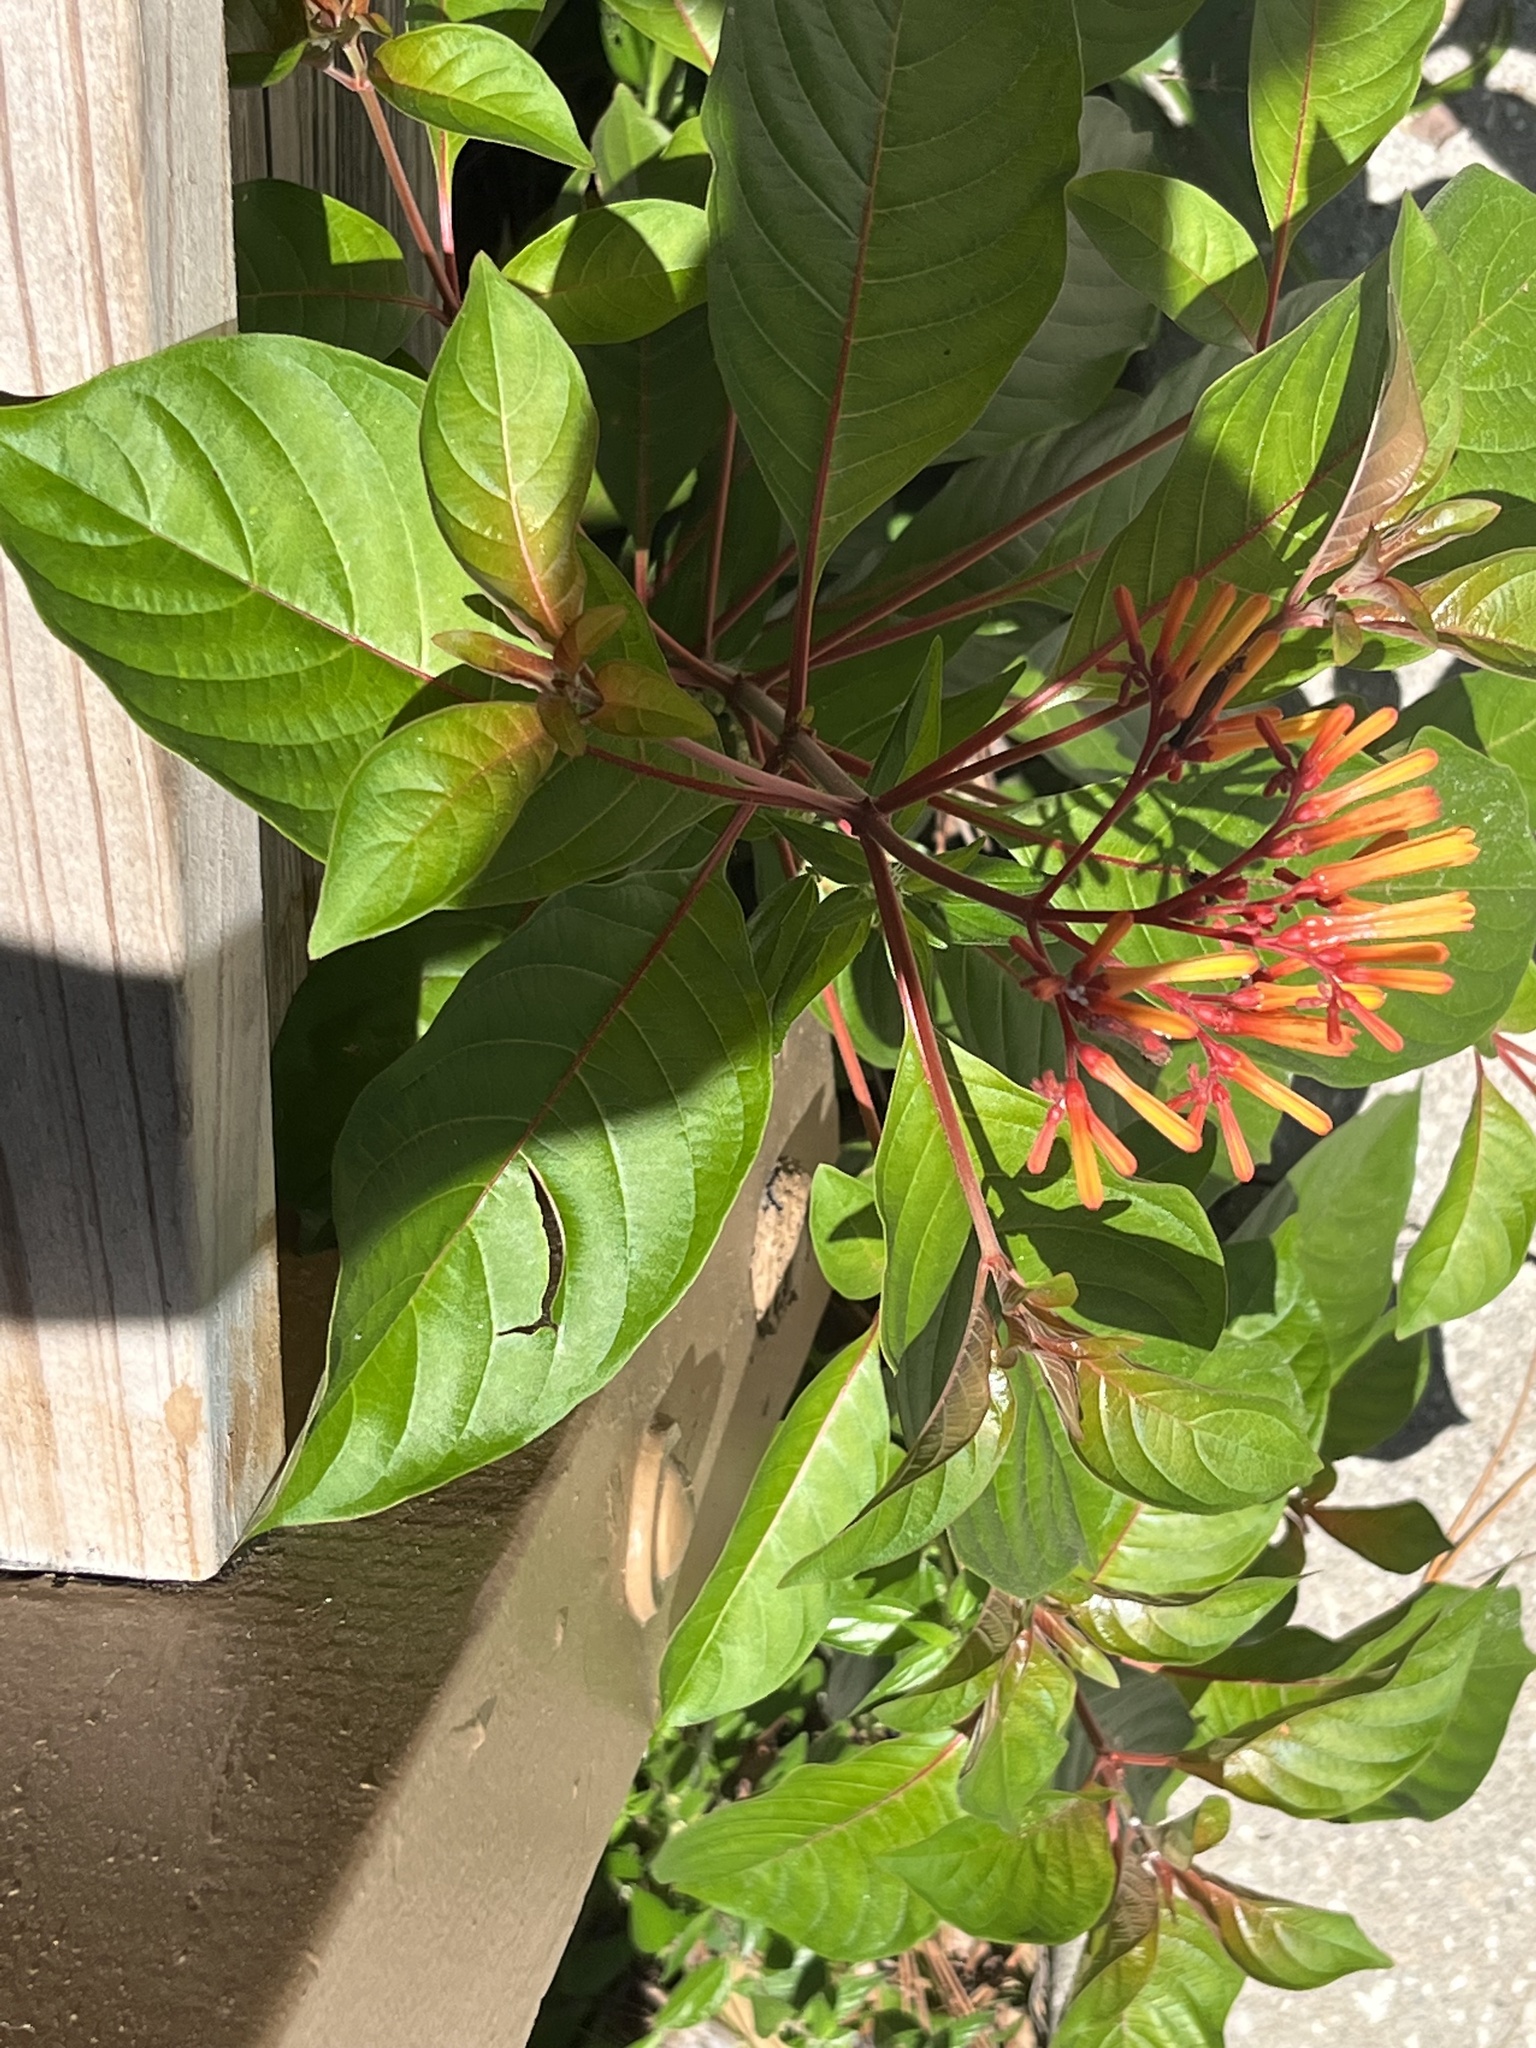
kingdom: Plantae
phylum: Tracheophyta
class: Magnoliopsida
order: Gentianales
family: Rubiaceae
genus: Hamelia
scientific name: Hamelia patens
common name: Redhead
